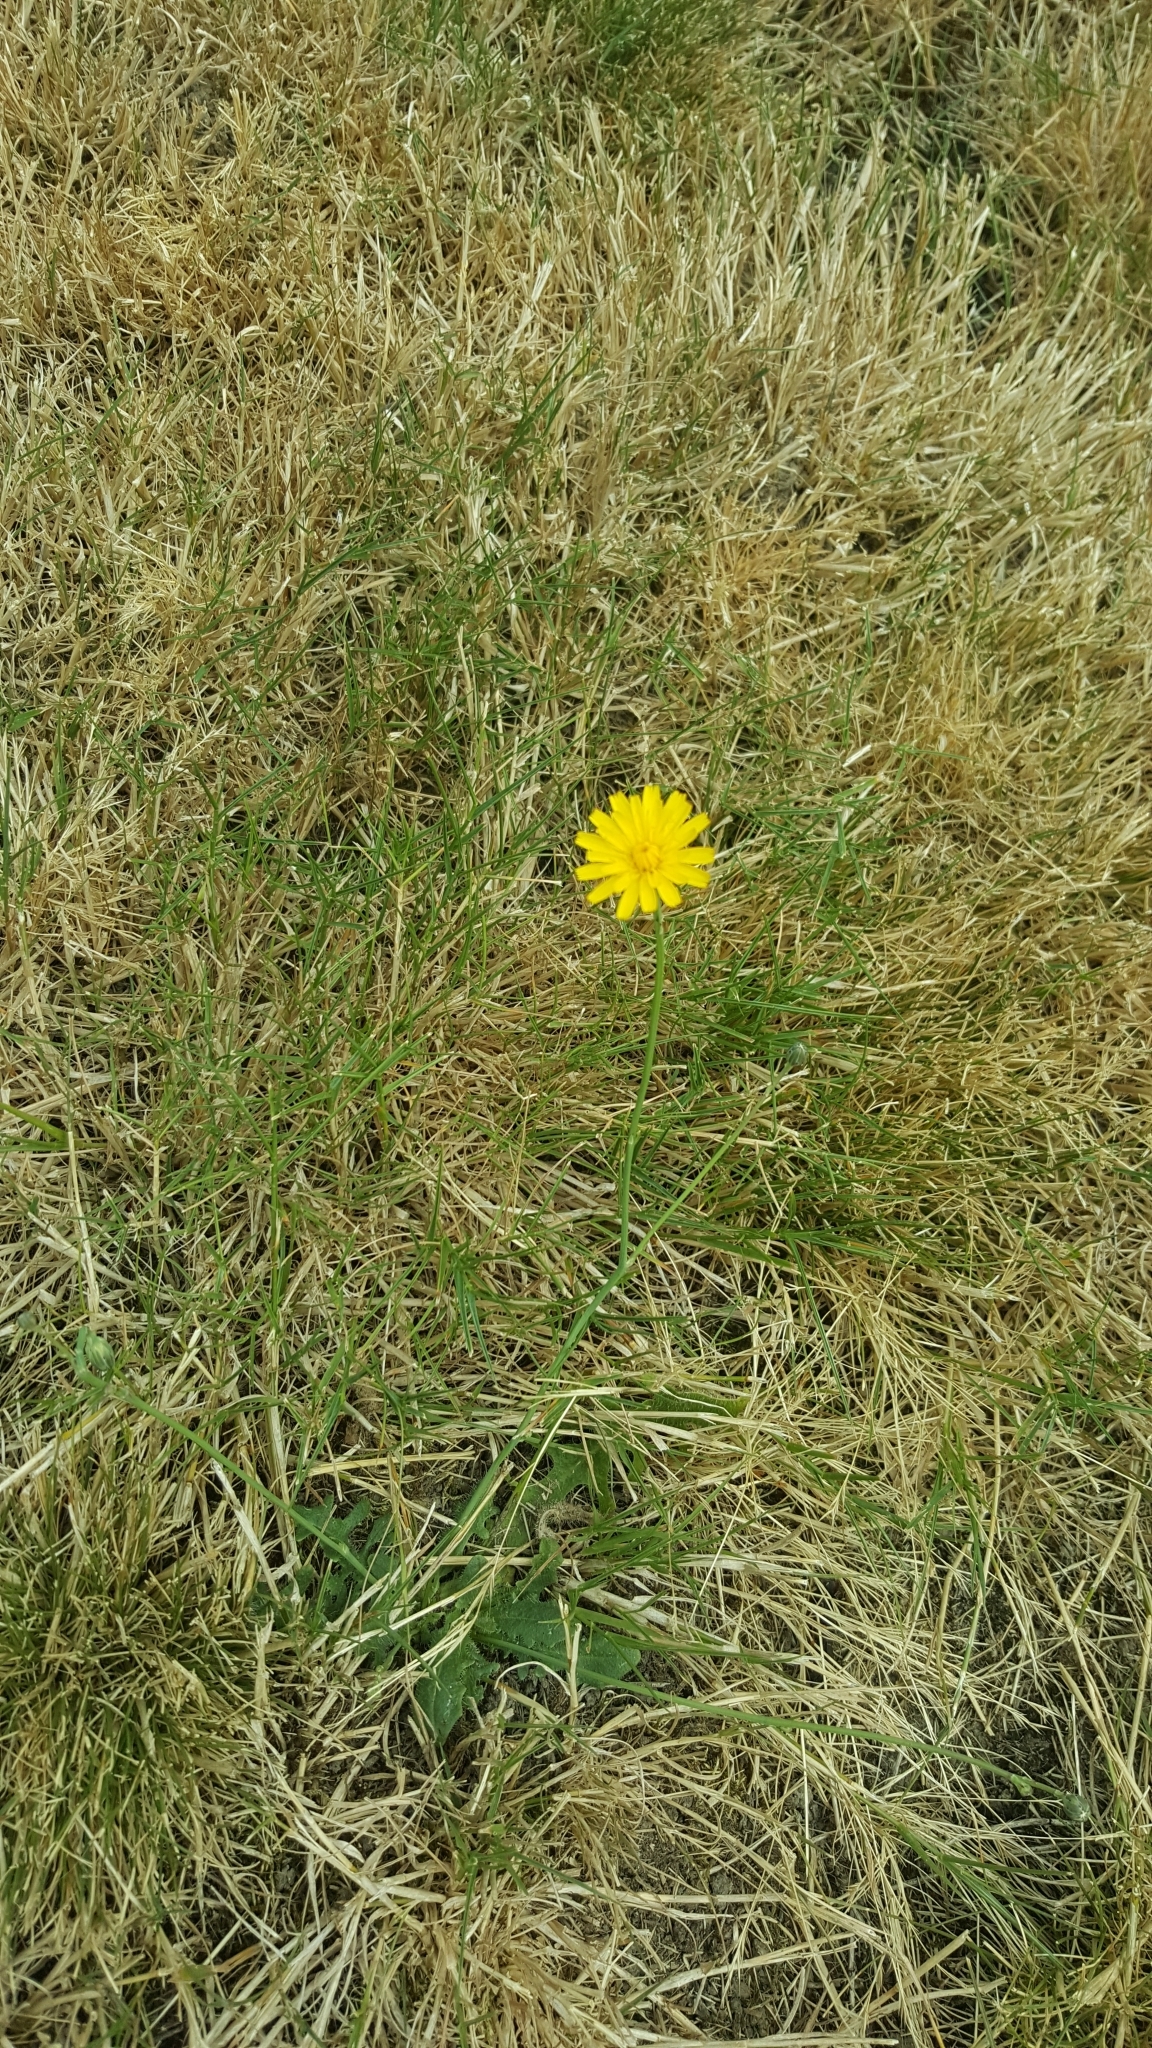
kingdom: Plantae
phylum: Tracheophyta
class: Magnoliopsida
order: Asterales
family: Asteraceae
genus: Hypochaeris
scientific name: Hypochaeris radicata
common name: Flatweed
